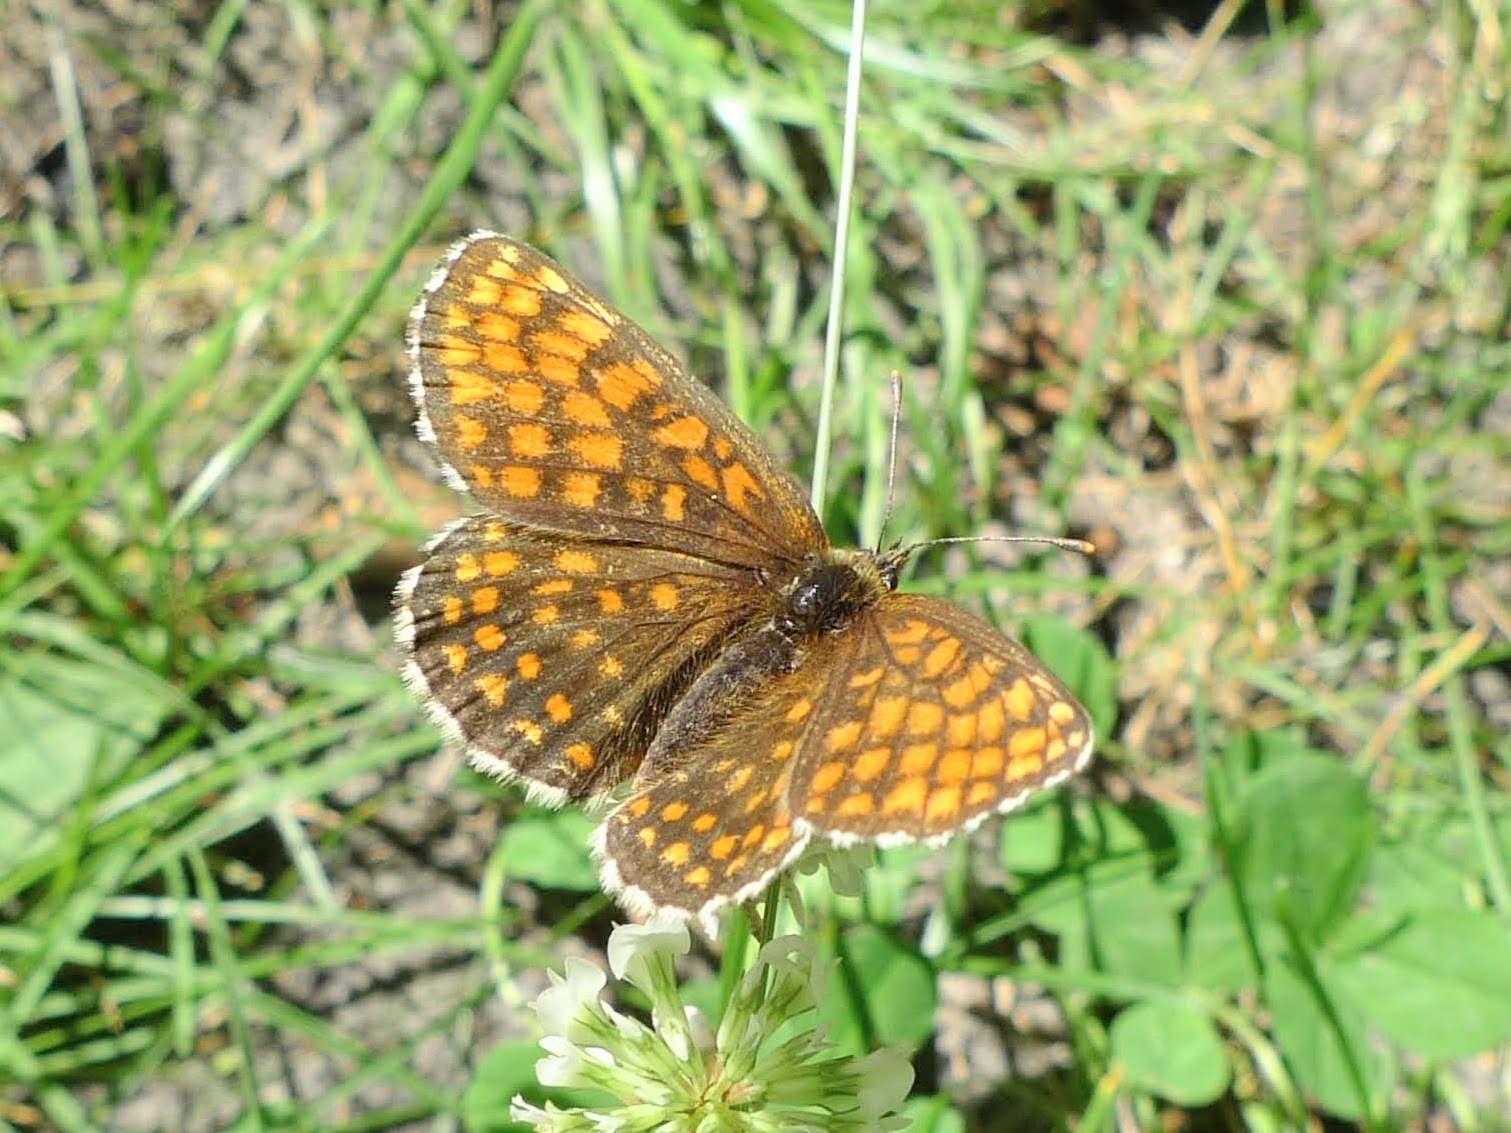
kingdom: Animalia
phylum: Arthropoda
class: Insecta
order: Lepidoptera
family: Nymphalidae
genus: Melitaea
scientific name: Melitaea athalia
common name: Heath fritillary
